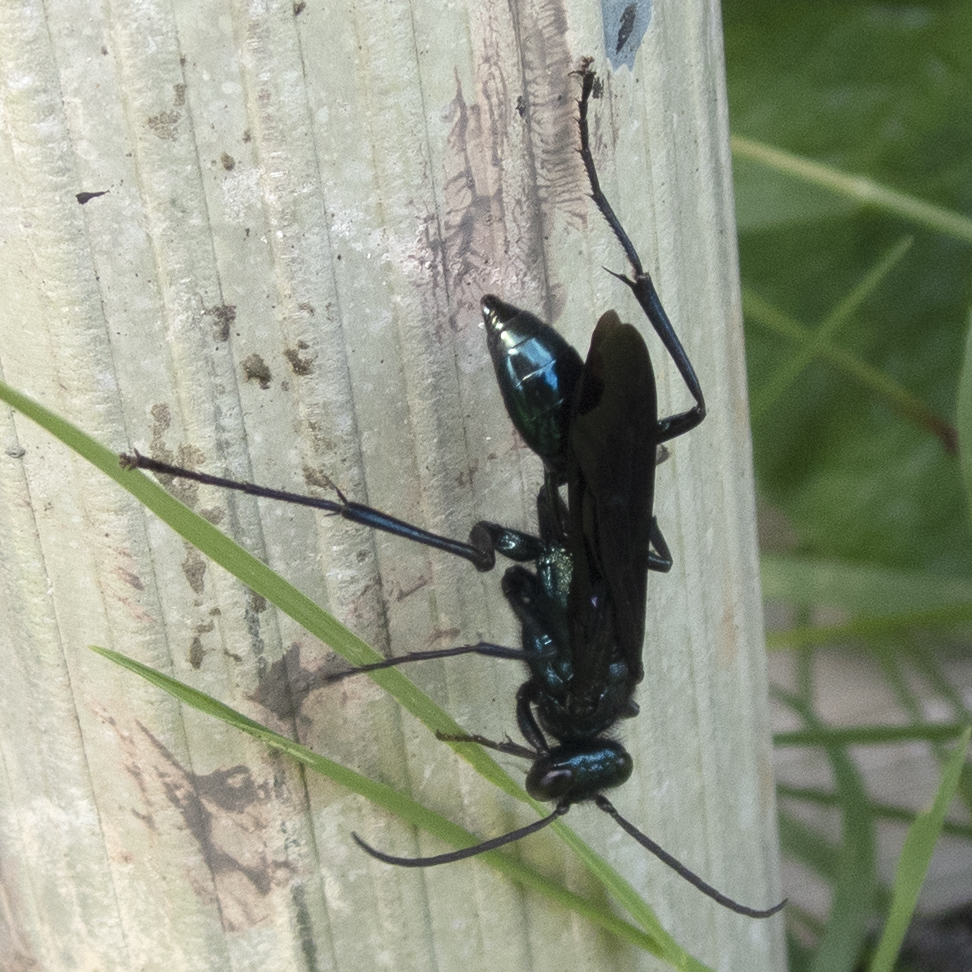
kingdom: Animalia
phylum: Arthropoda
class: Insecta
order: Hymenoptera
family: Sphecidae
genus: Chalybion
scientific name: Chalybion californicum
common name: Mud dauber
